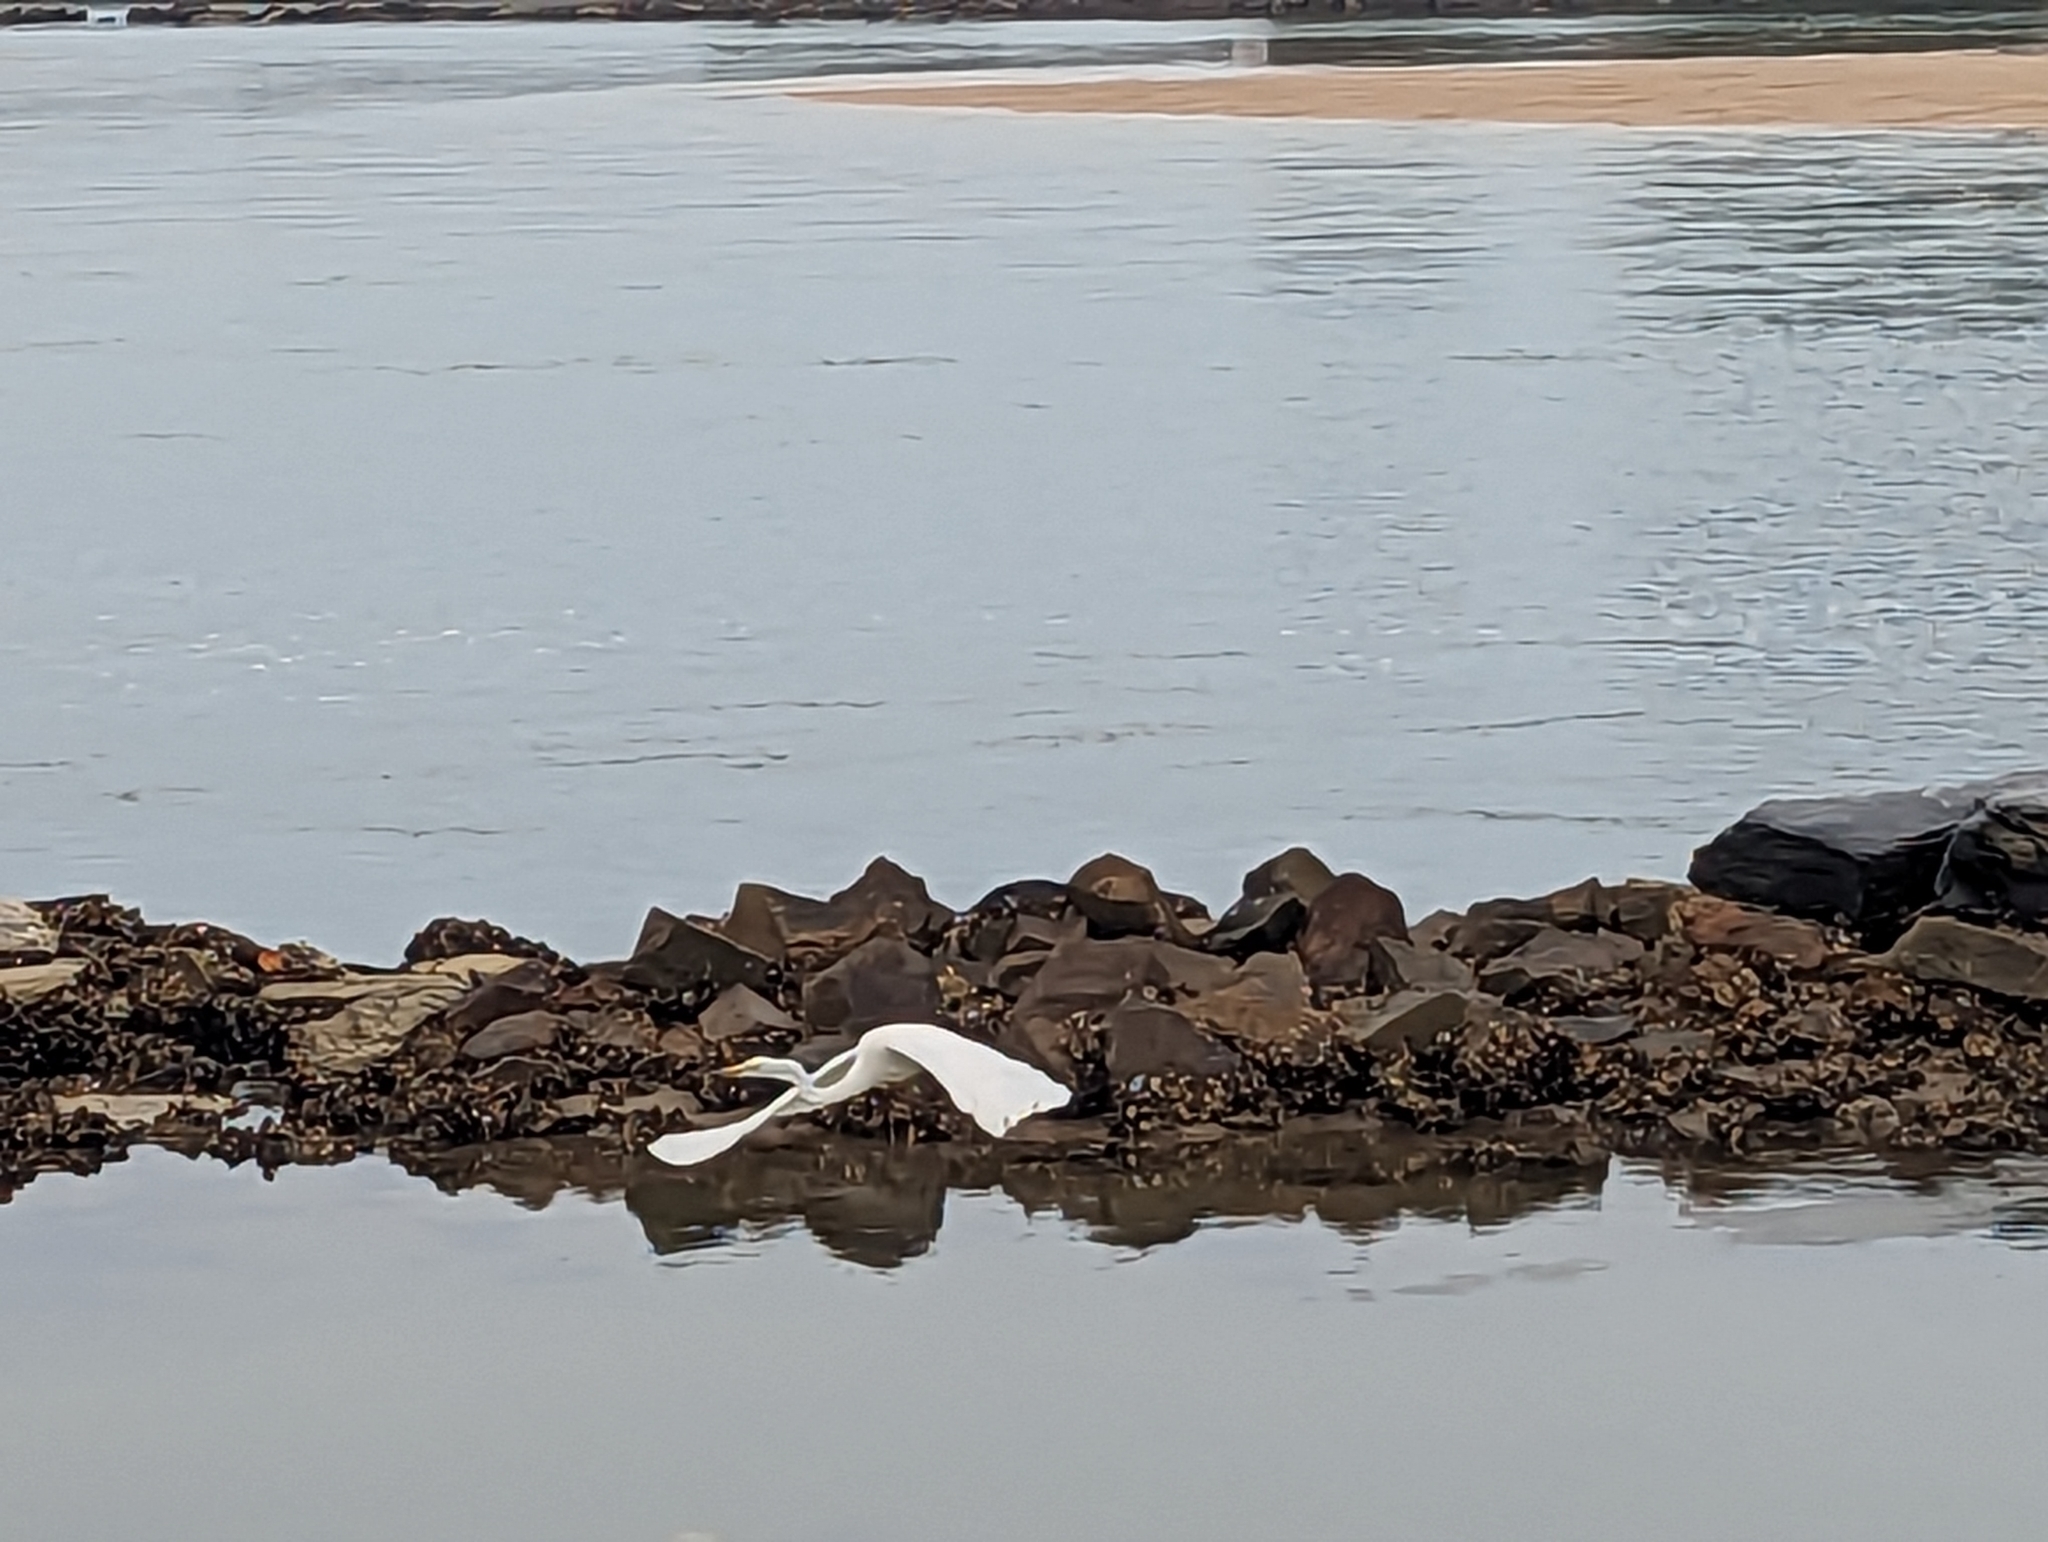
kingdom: Animalia
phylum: Chordata
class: Aves
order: Pelecaniformes
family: Ardeidae
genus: Ardea
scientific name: Ardea alba
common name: Great egret
